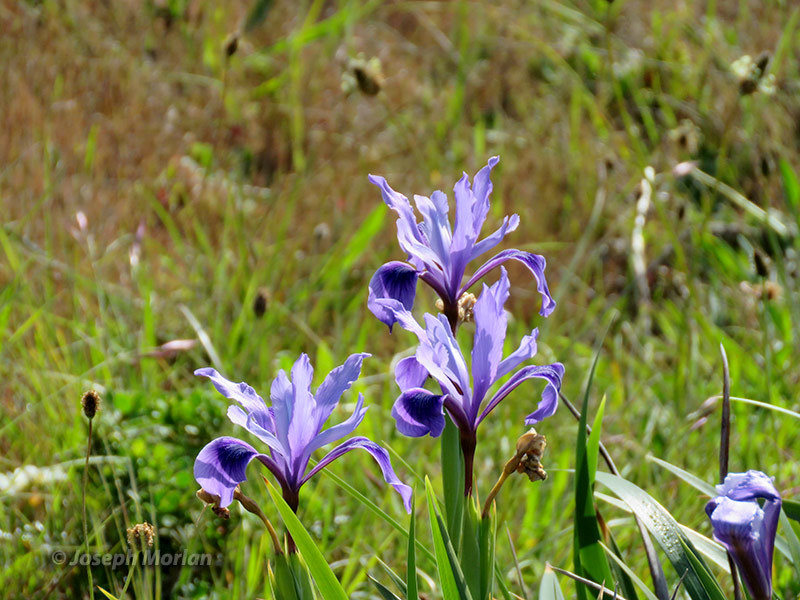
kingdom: Plantae
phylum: Tracheophyta
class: Liliopsida
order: Asparagales
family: Iridaceae
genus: Iris
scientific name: Iris douglasiana
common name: Marin iris
